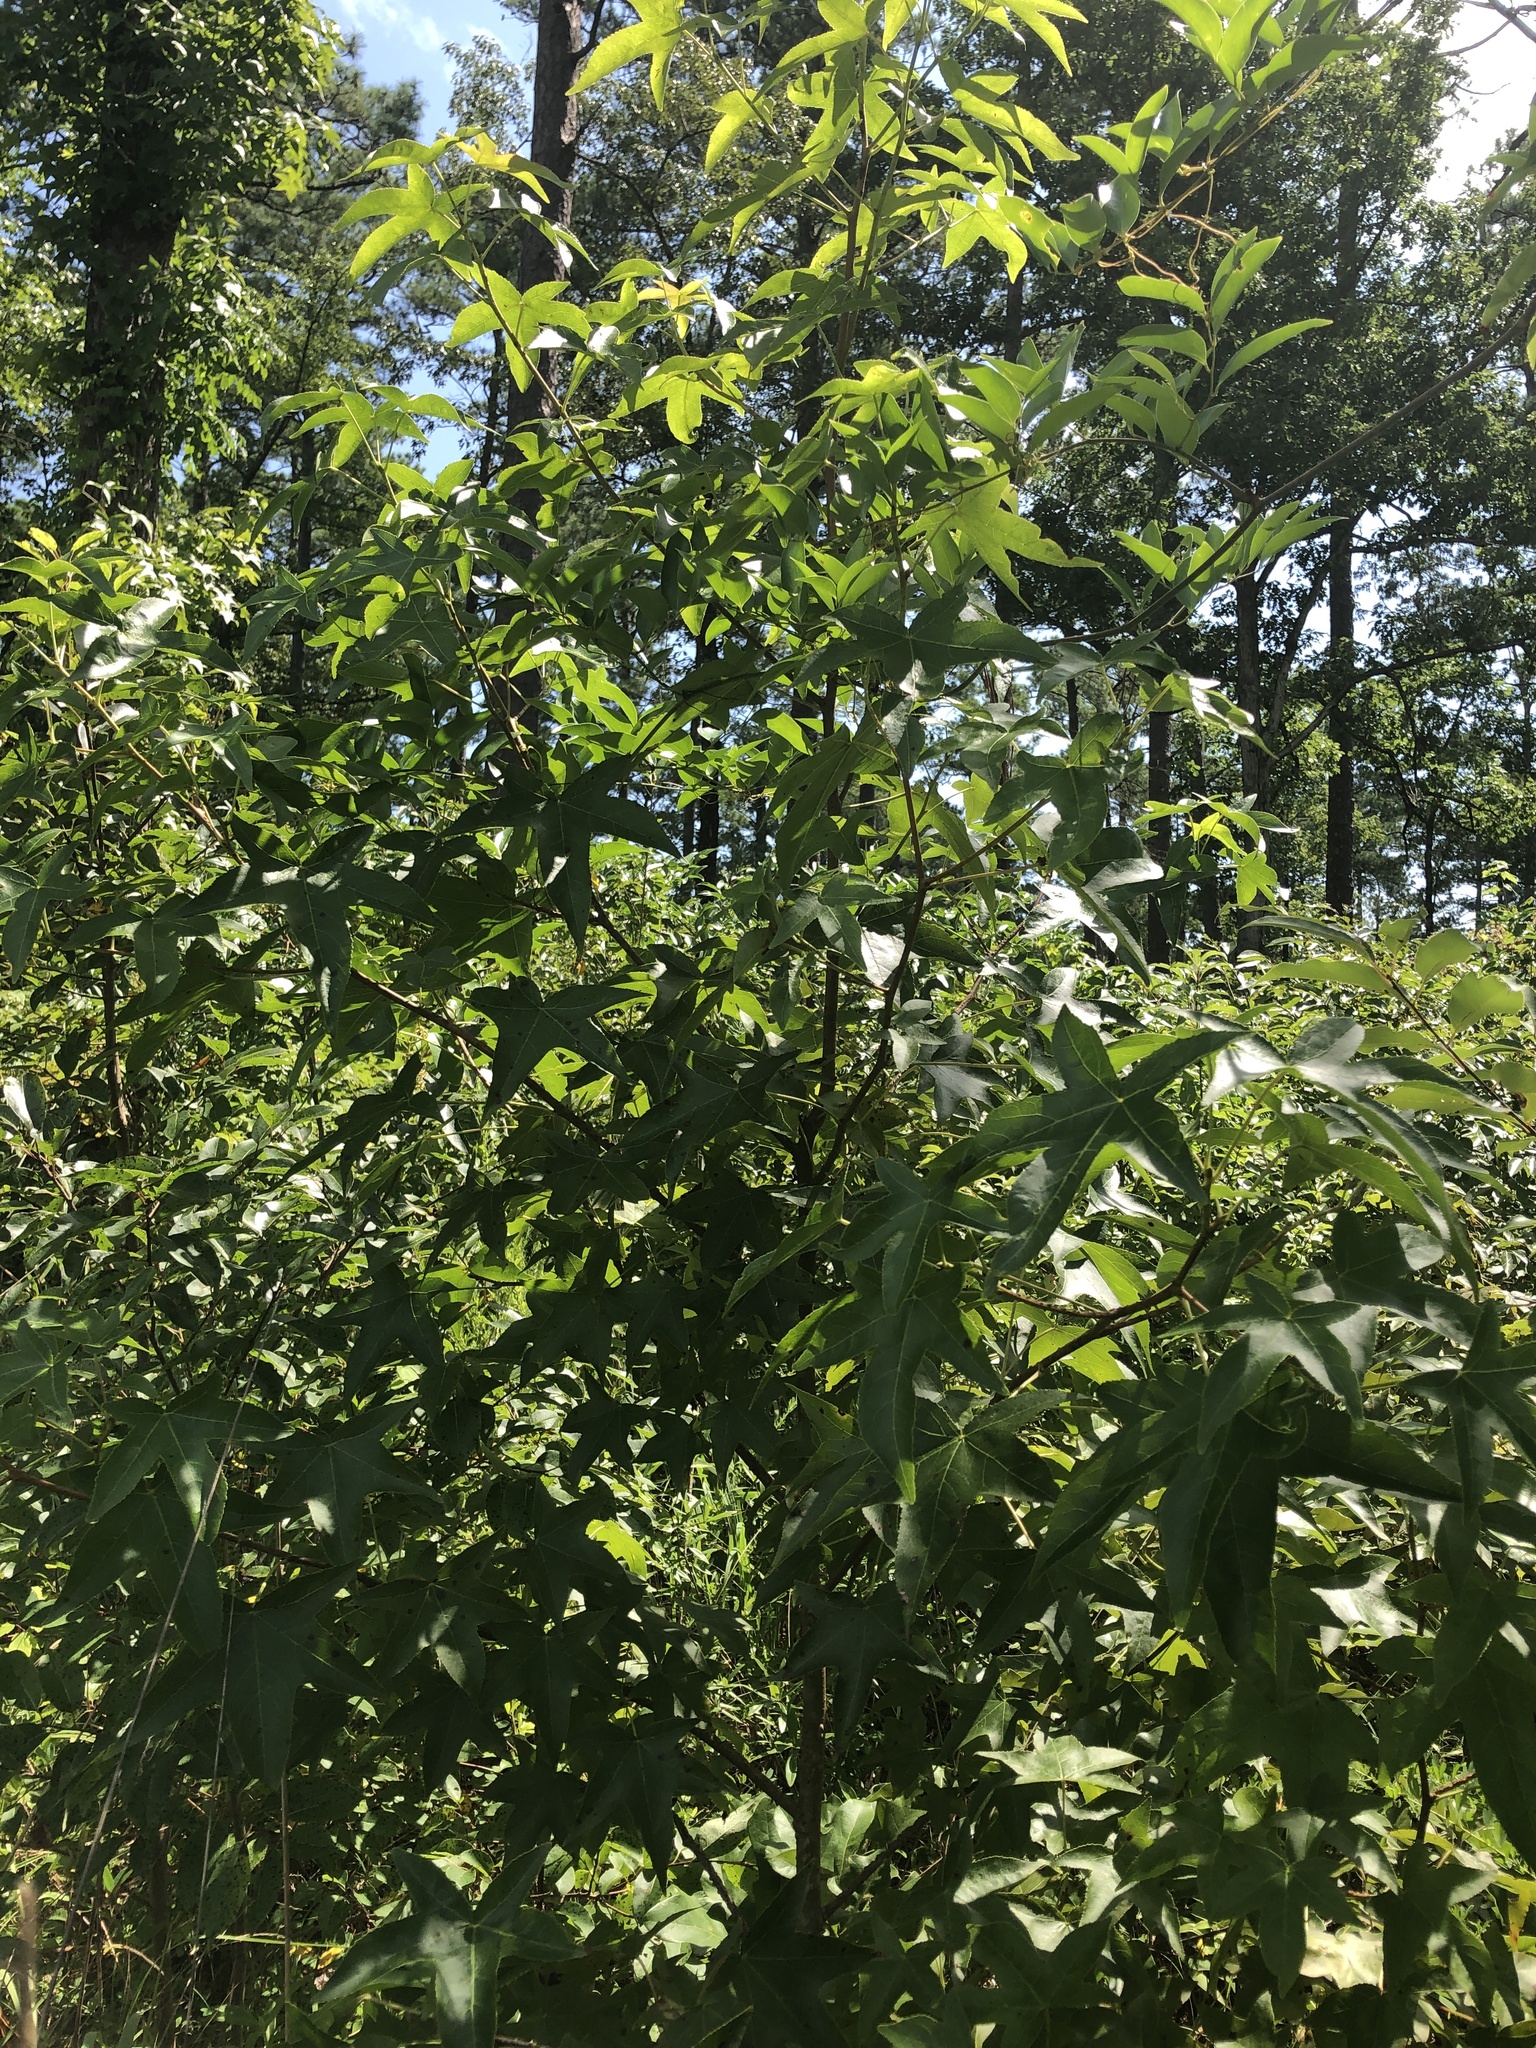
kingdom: Plantae
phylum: Tracheophyta
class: Magnoliopsida
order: Saxifragales
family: Altingiaceae
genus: Liquidambar
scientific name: Liquidambar styraciflua
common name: Sweet gum
